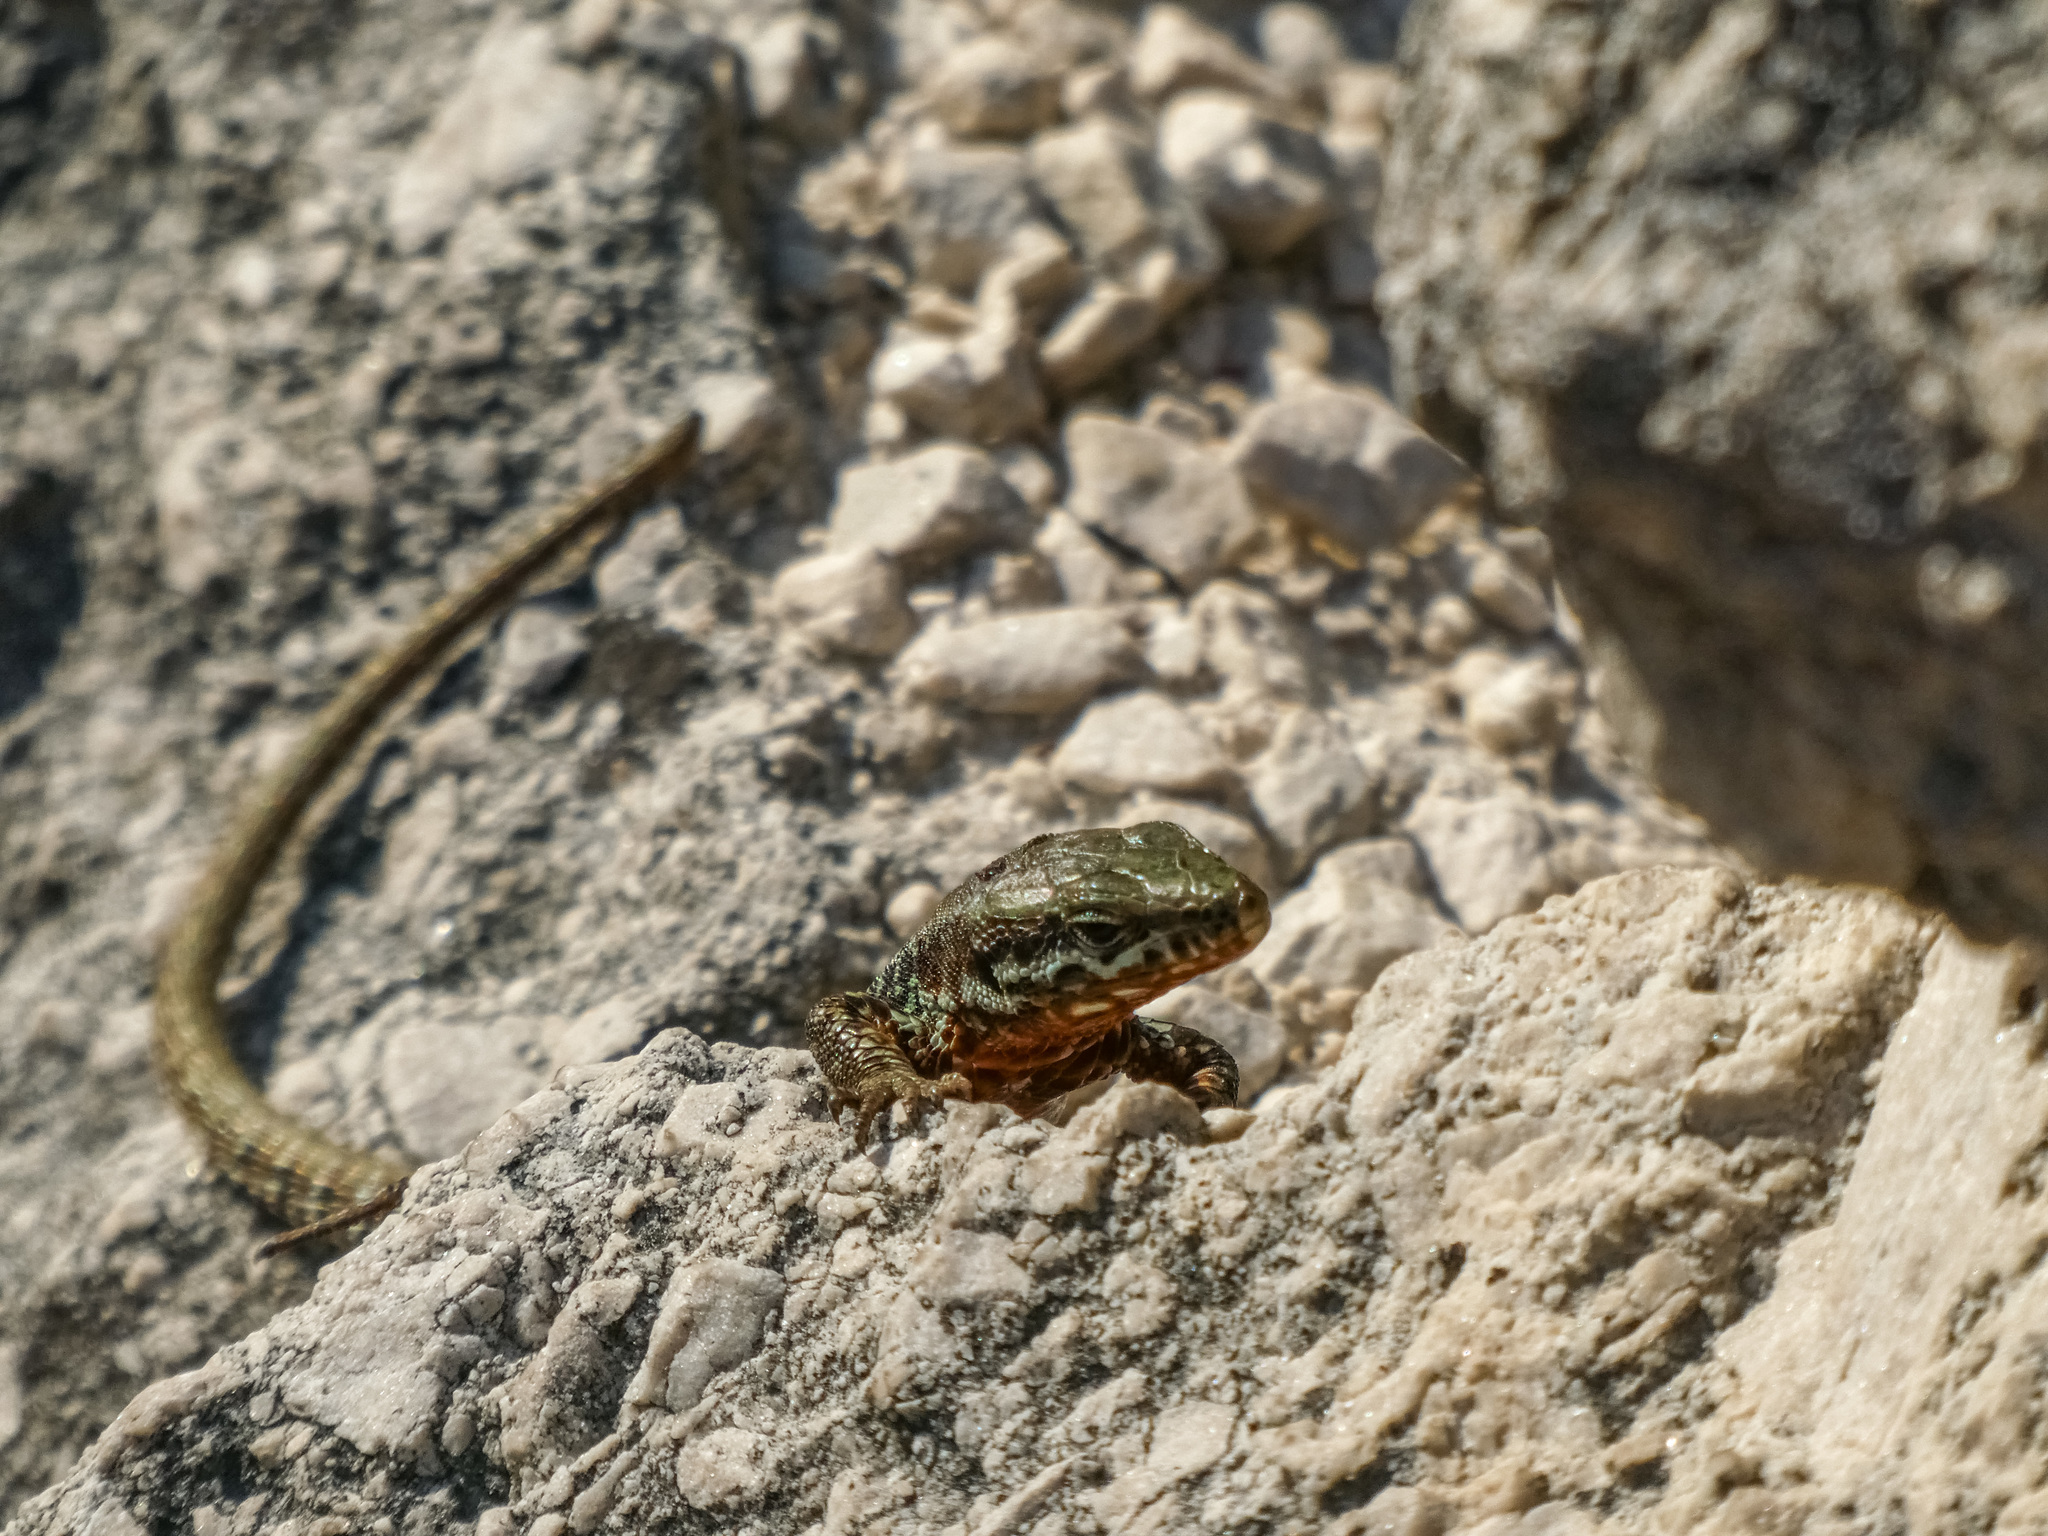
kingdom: Animalia
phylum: Chordata
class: Squamata
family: Lacertidae
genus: Podarcis
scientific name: Podarcis muralis
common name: Common wall lizard
